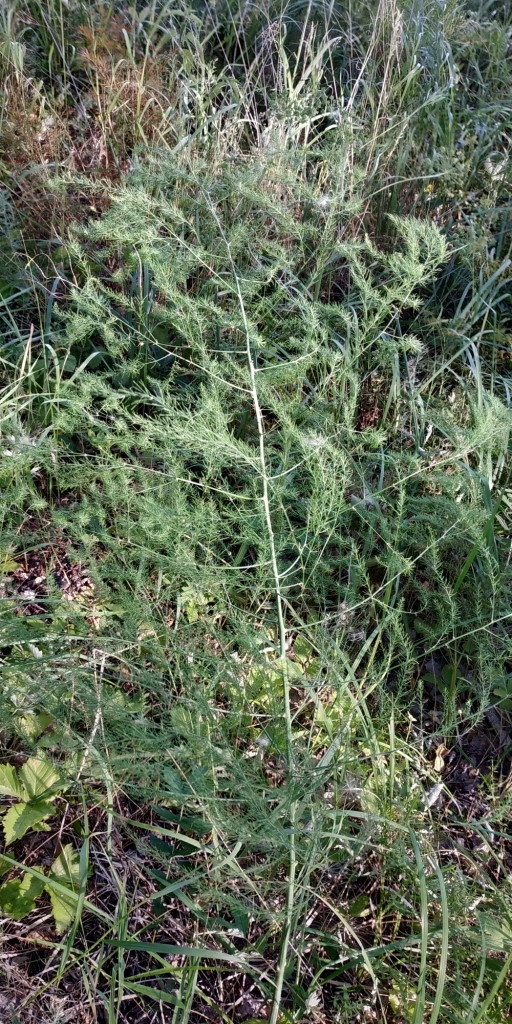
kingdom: Plantae
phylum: Tracheophyta
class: Liliopsida
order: Asparagales
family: Asparagaceae
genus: Asparagus
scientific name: Asparagus officinalis
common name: Garden asparagus
